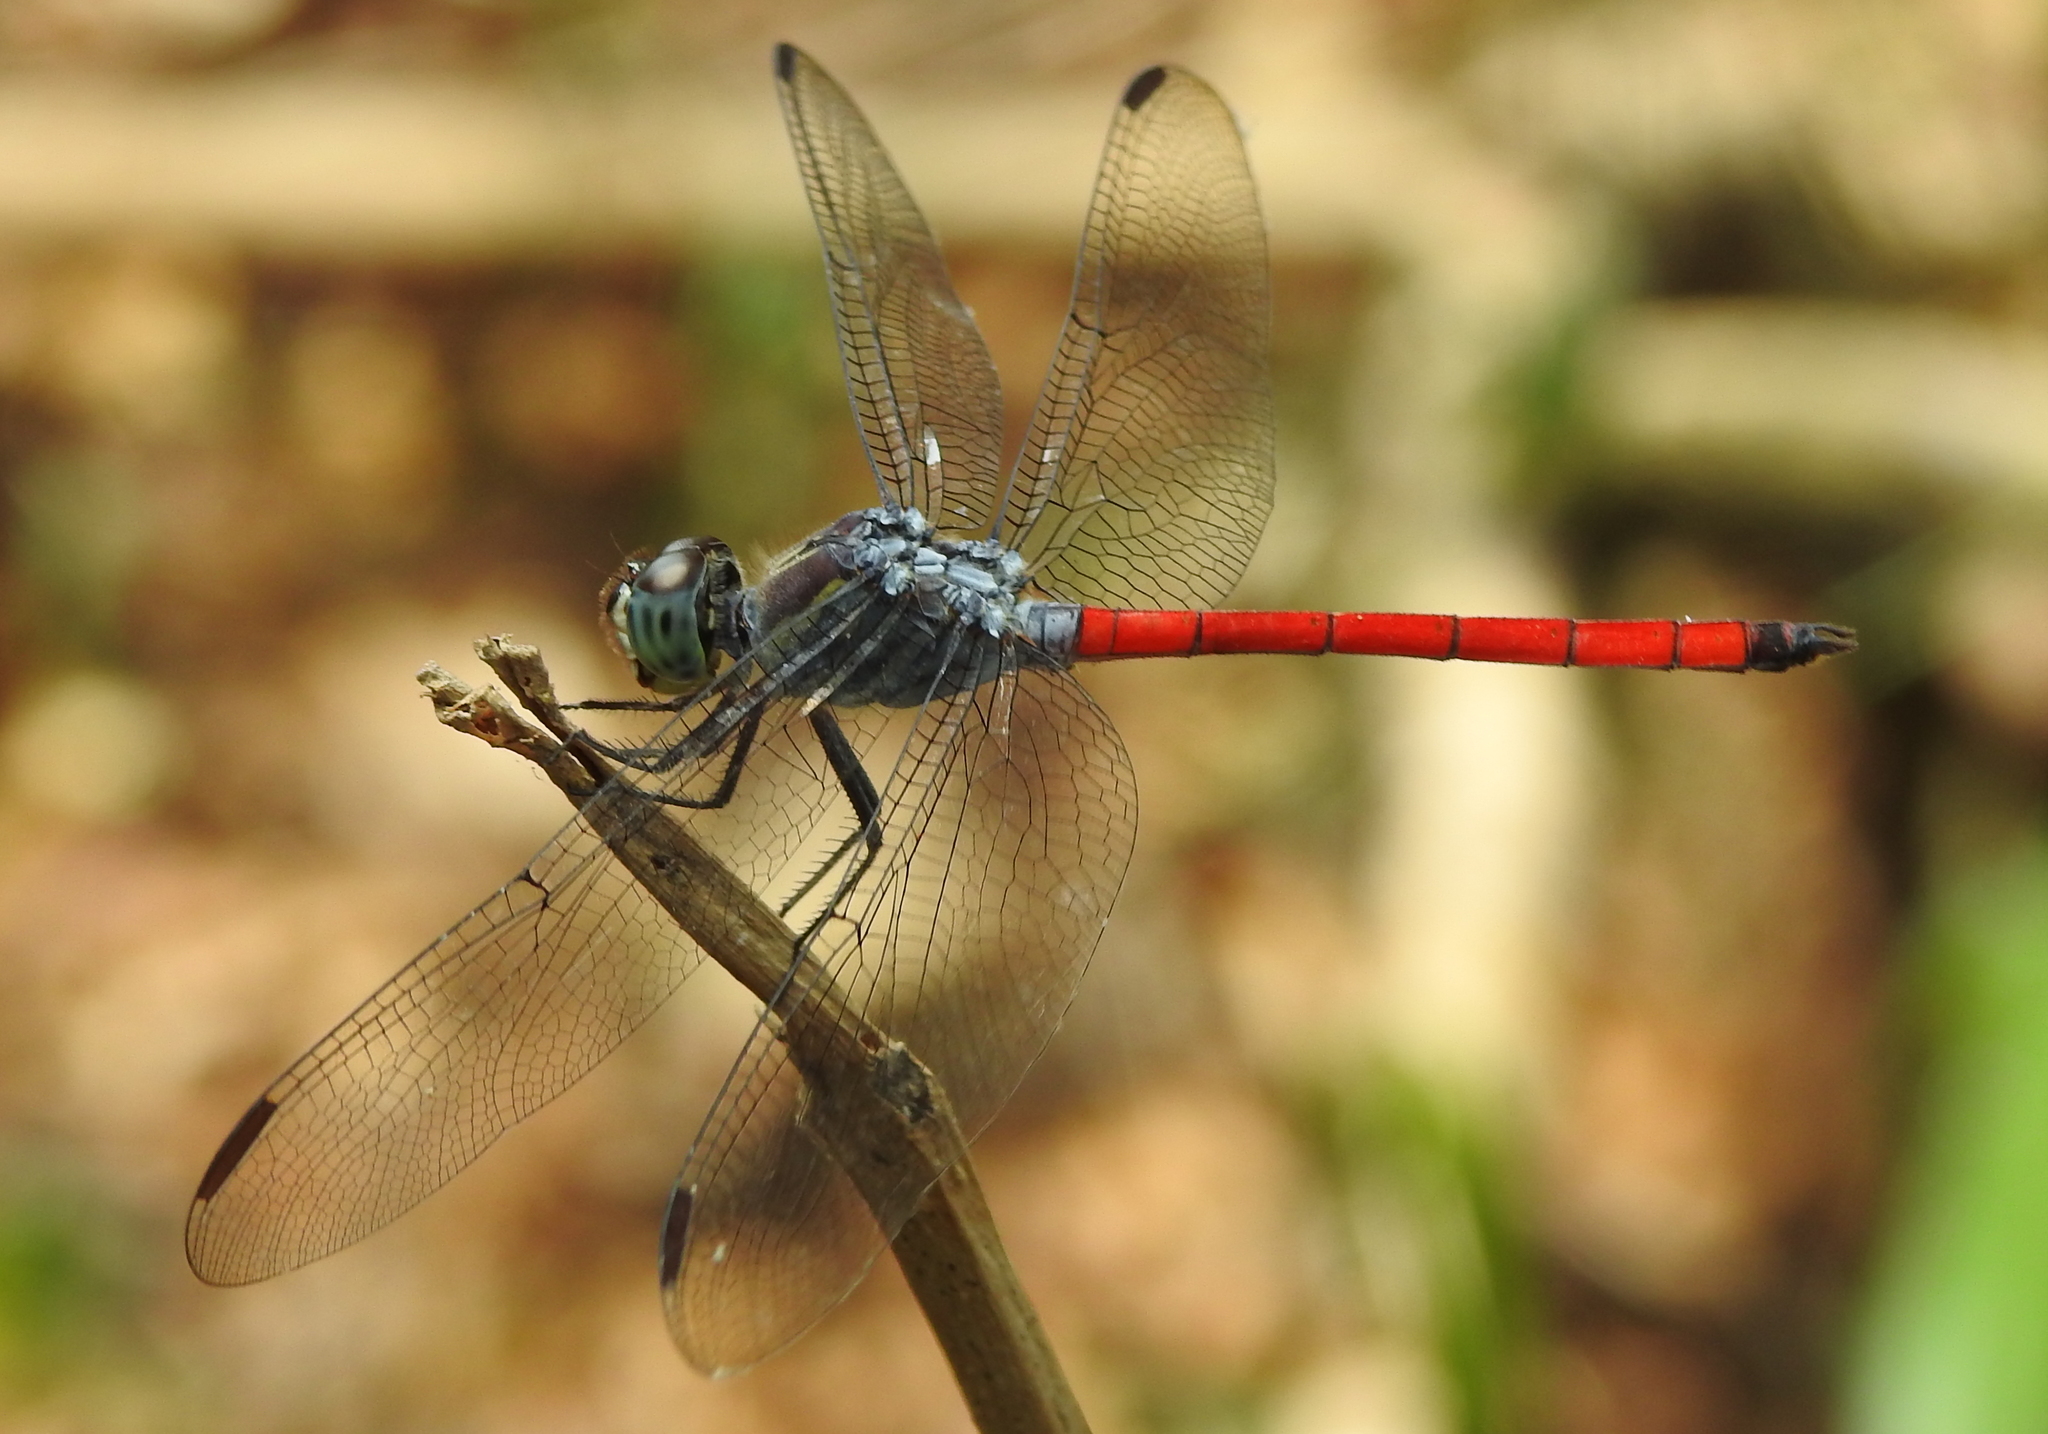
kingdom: Animalia
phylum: Arthropoda
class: Insecta
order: Odonata
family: Libellulidae
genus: Lathrecista
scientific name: Lathrecista asiatica
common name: Scarlet grenadier
